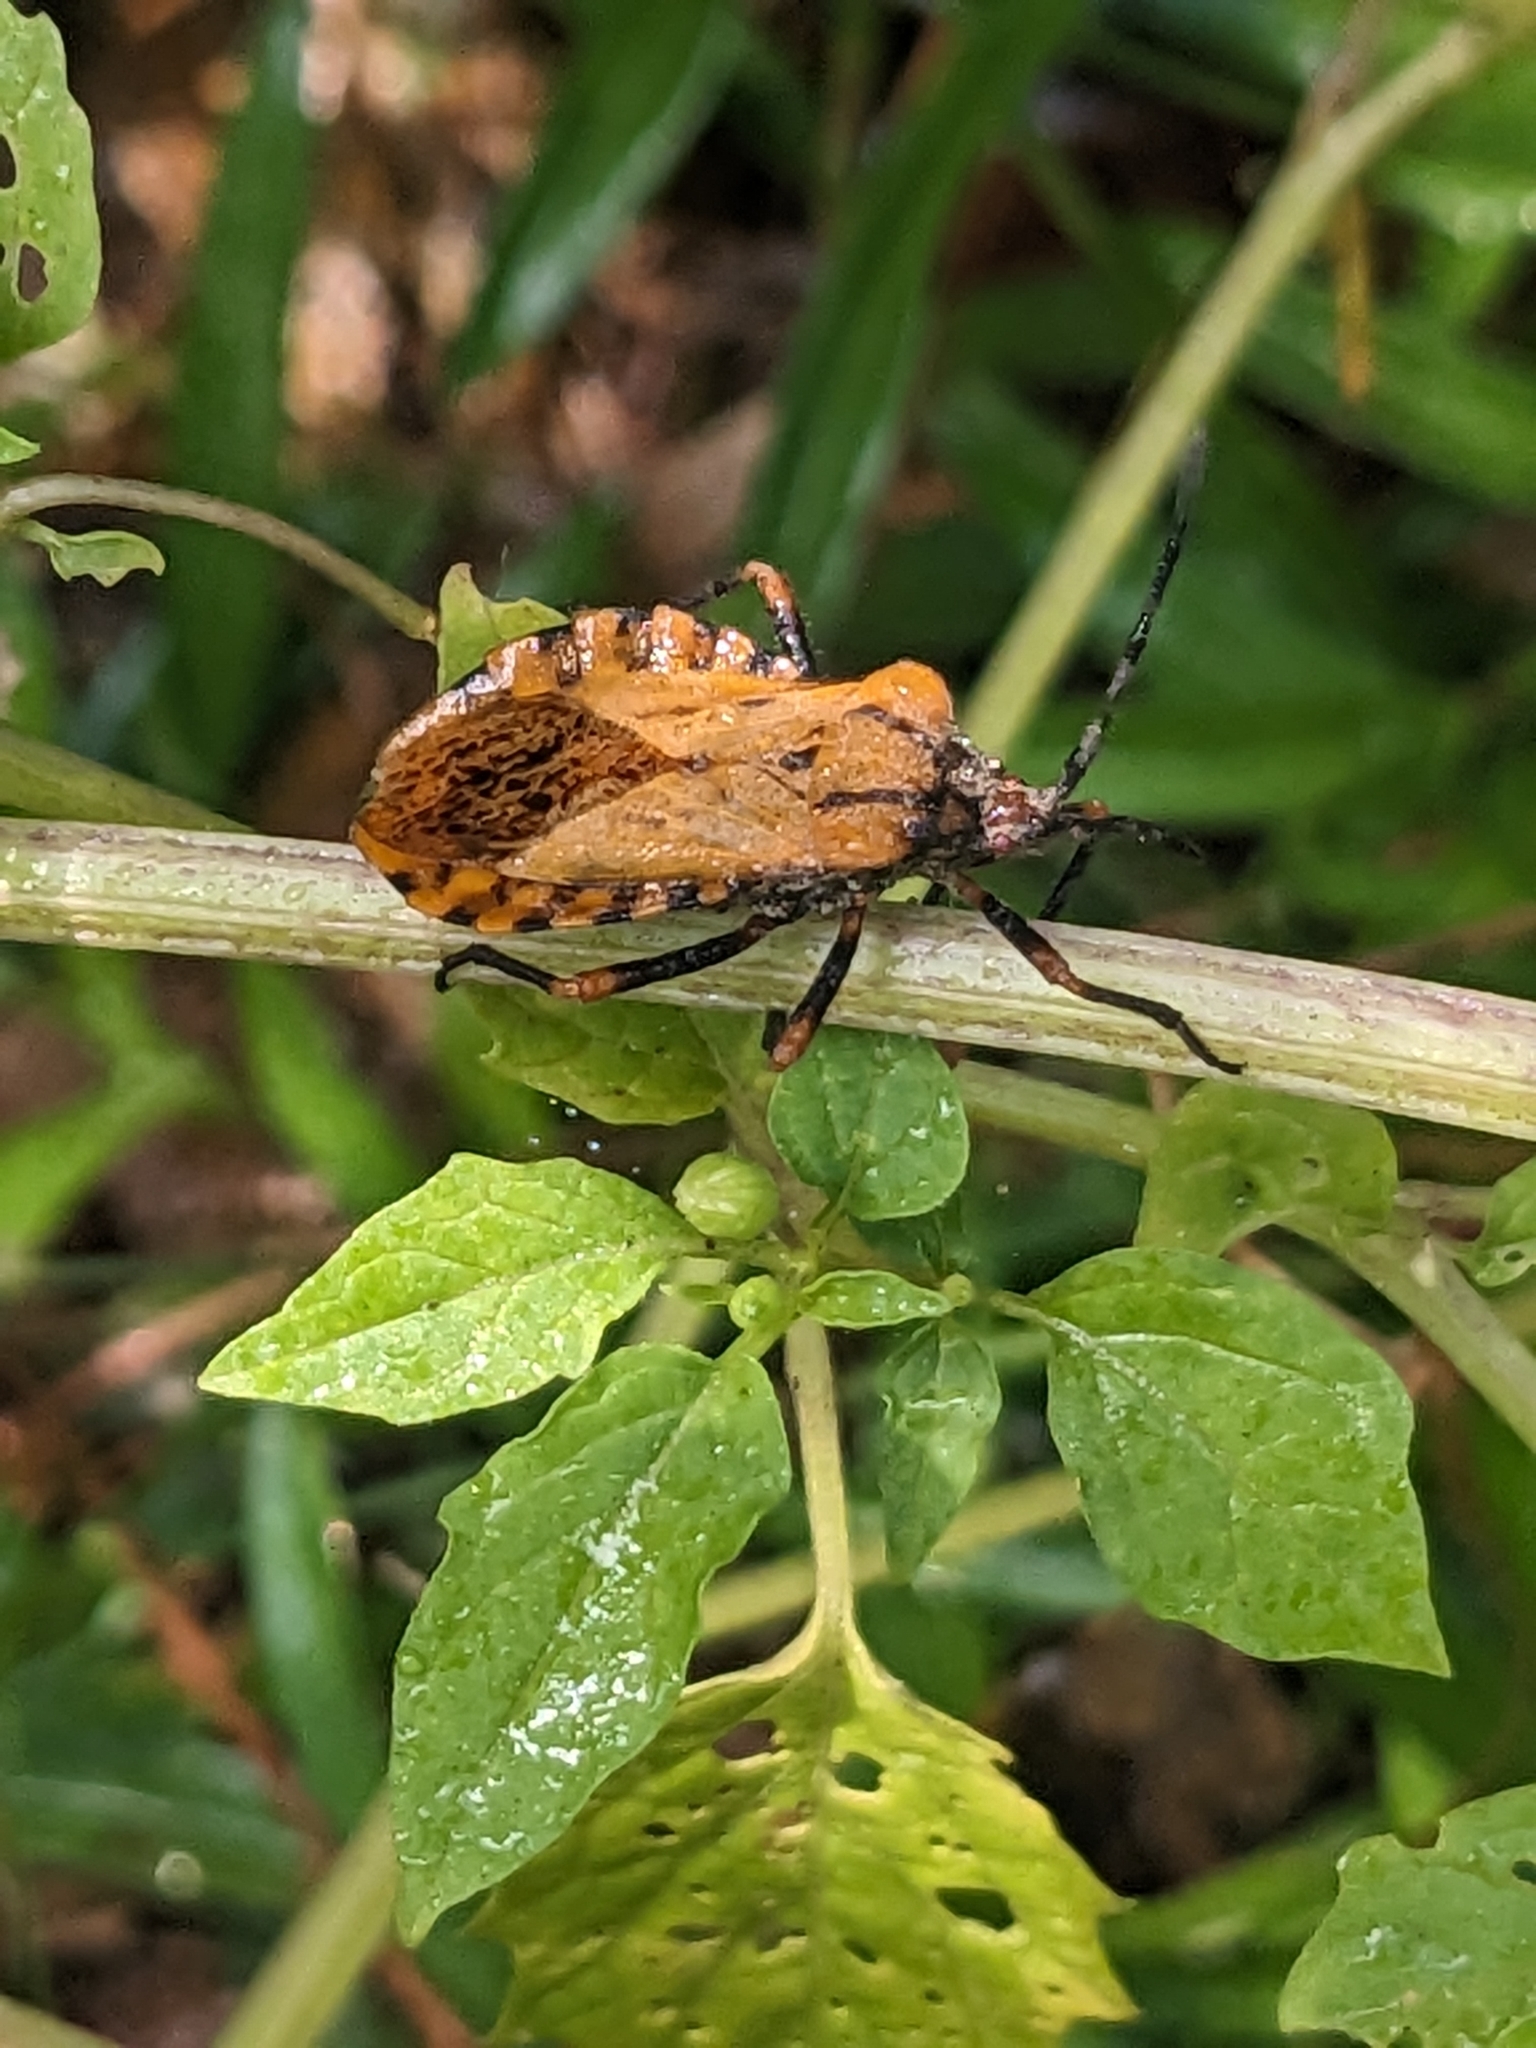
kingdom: Animalia
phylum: Arthropoda
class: Insecta
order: Hemiptera
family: Coreidae
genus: Spartocera
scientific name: Spartocera fusca
